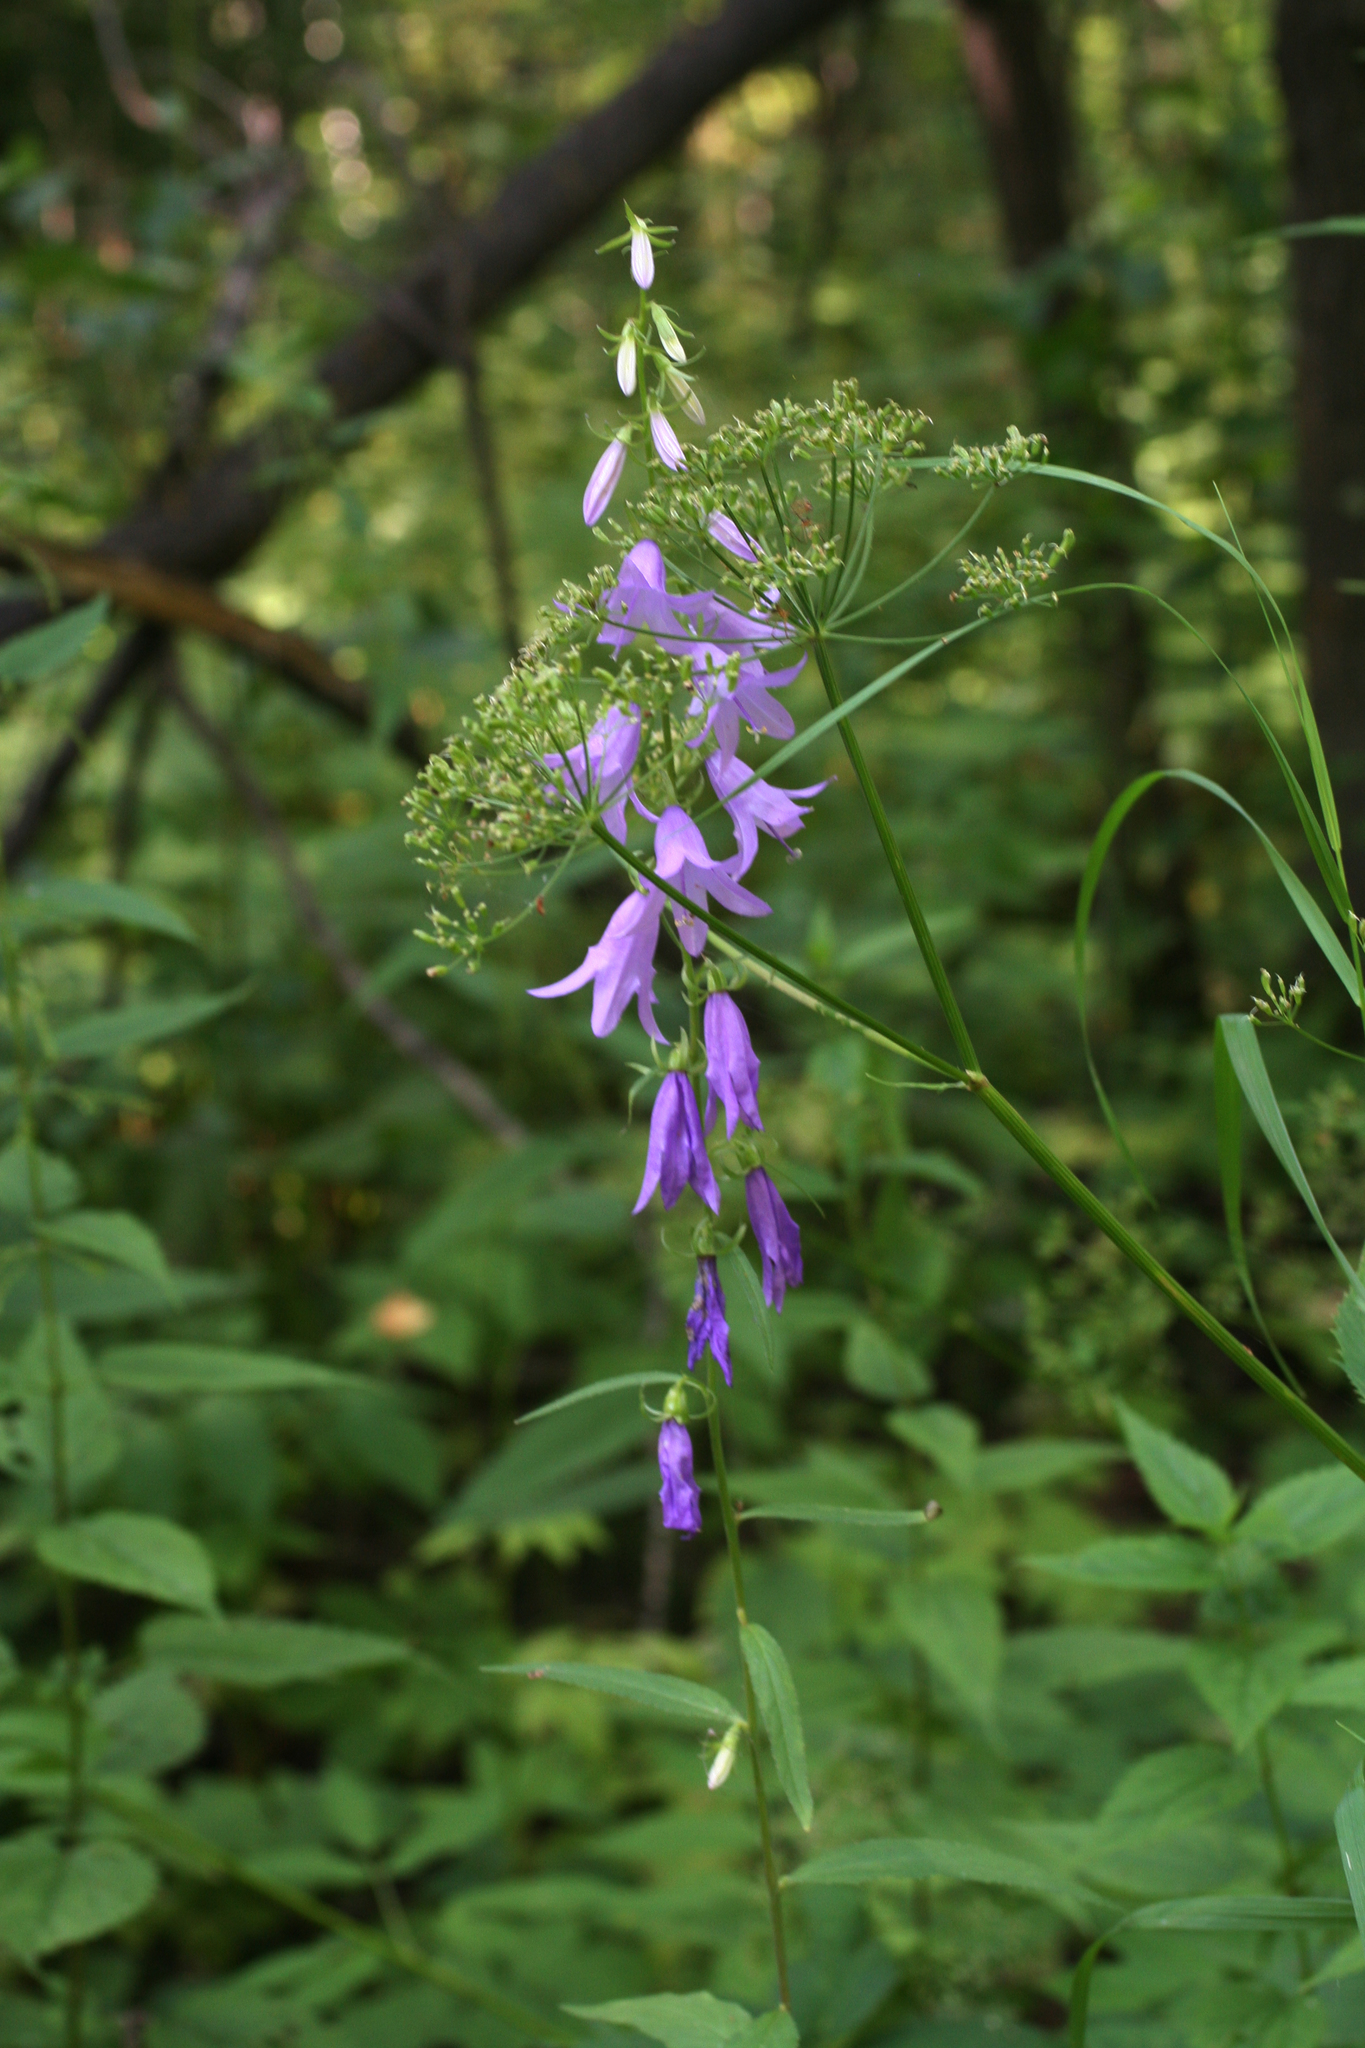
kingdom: Plantae
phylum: Tracheophyta
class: Magnoliopsida
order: Asterales
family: Campanulaceae
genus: Campanula
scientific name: Campanula rapunculoides
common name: Creeping bellflower
